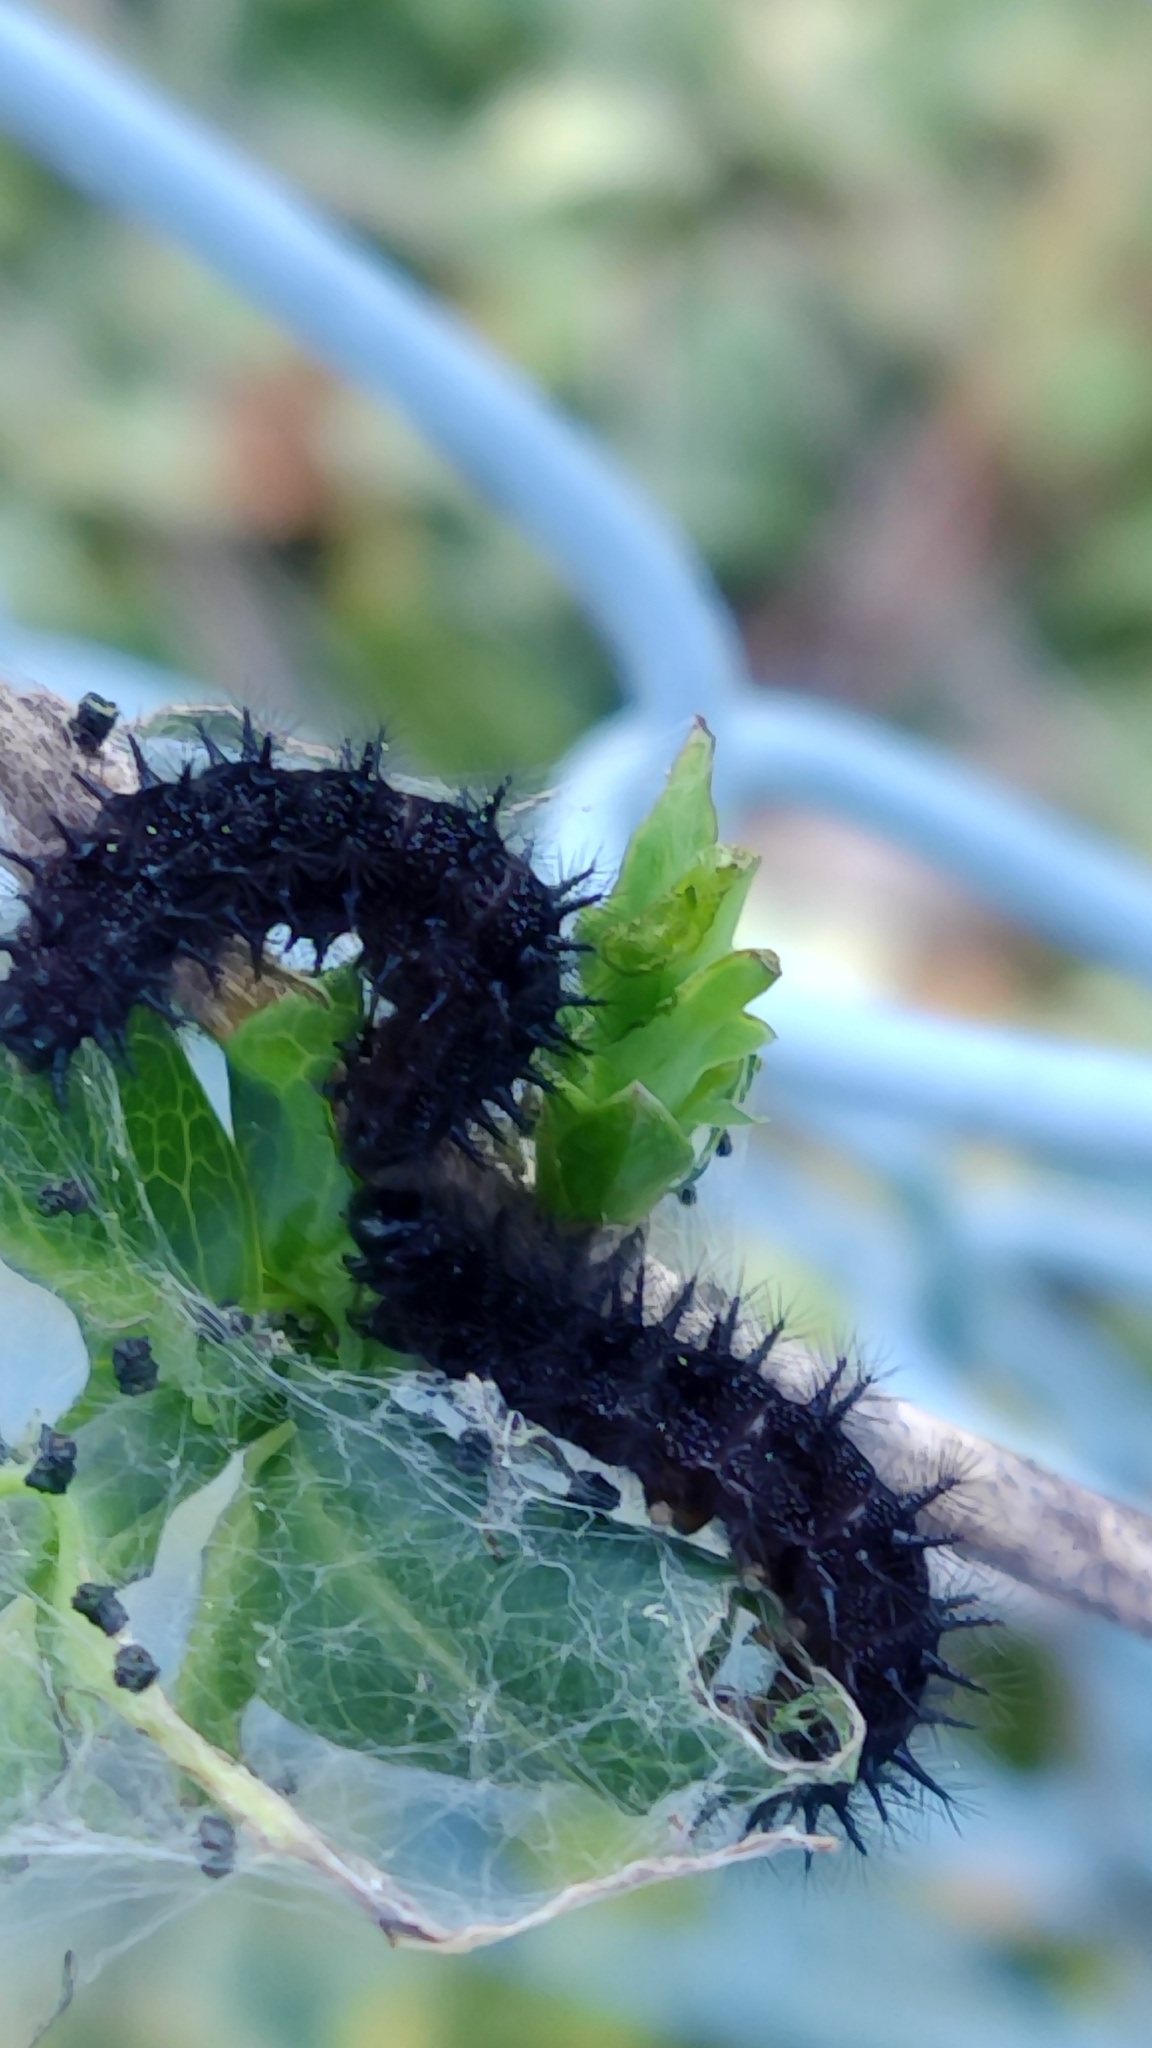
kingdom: Animalia
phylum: Arthropoda
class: Insecta
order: Lepidoptera
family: Nymphalidae
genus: Euphydryas
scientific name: Euphydryas aurinia
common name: Marsh fritillary
